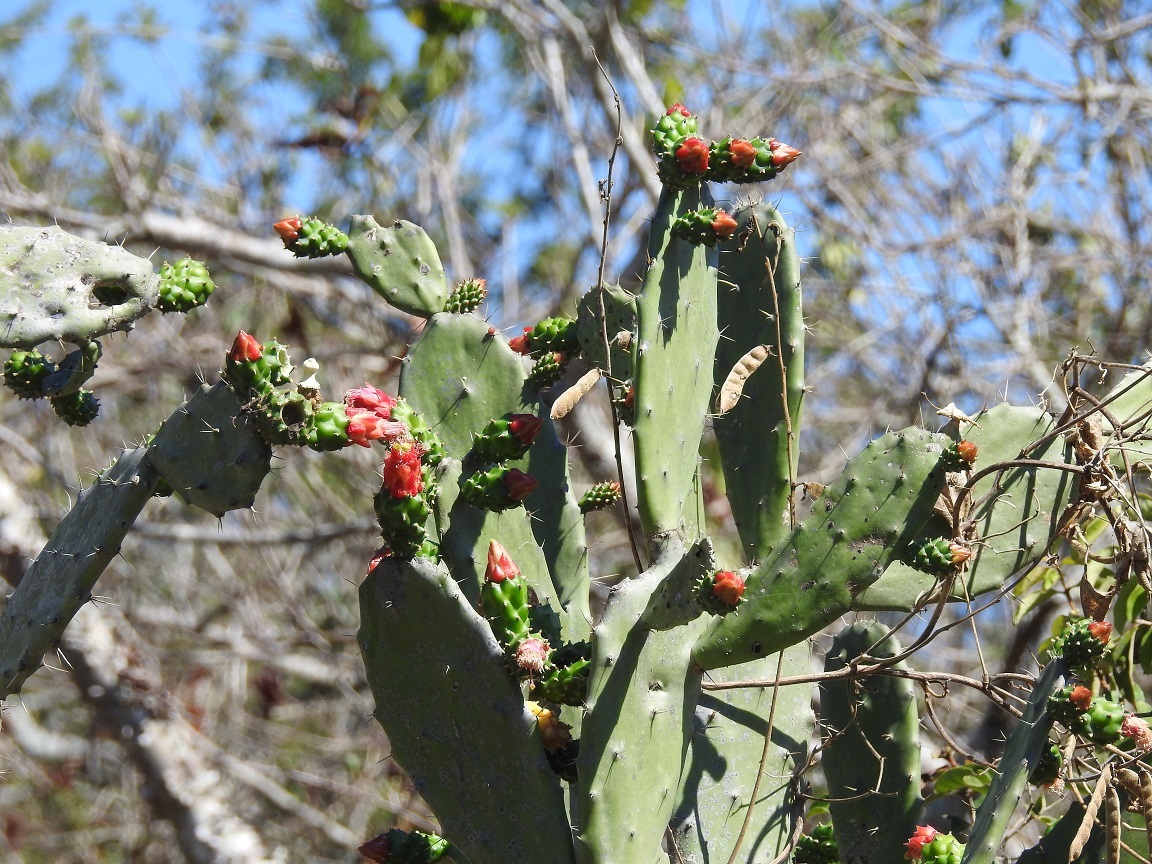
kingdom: Plantae
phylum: Tracheophyta
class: Magnoliopsida
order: Caryophyllales
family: Cactaceae
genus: Opuntia
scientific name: Opuntia dejecta
